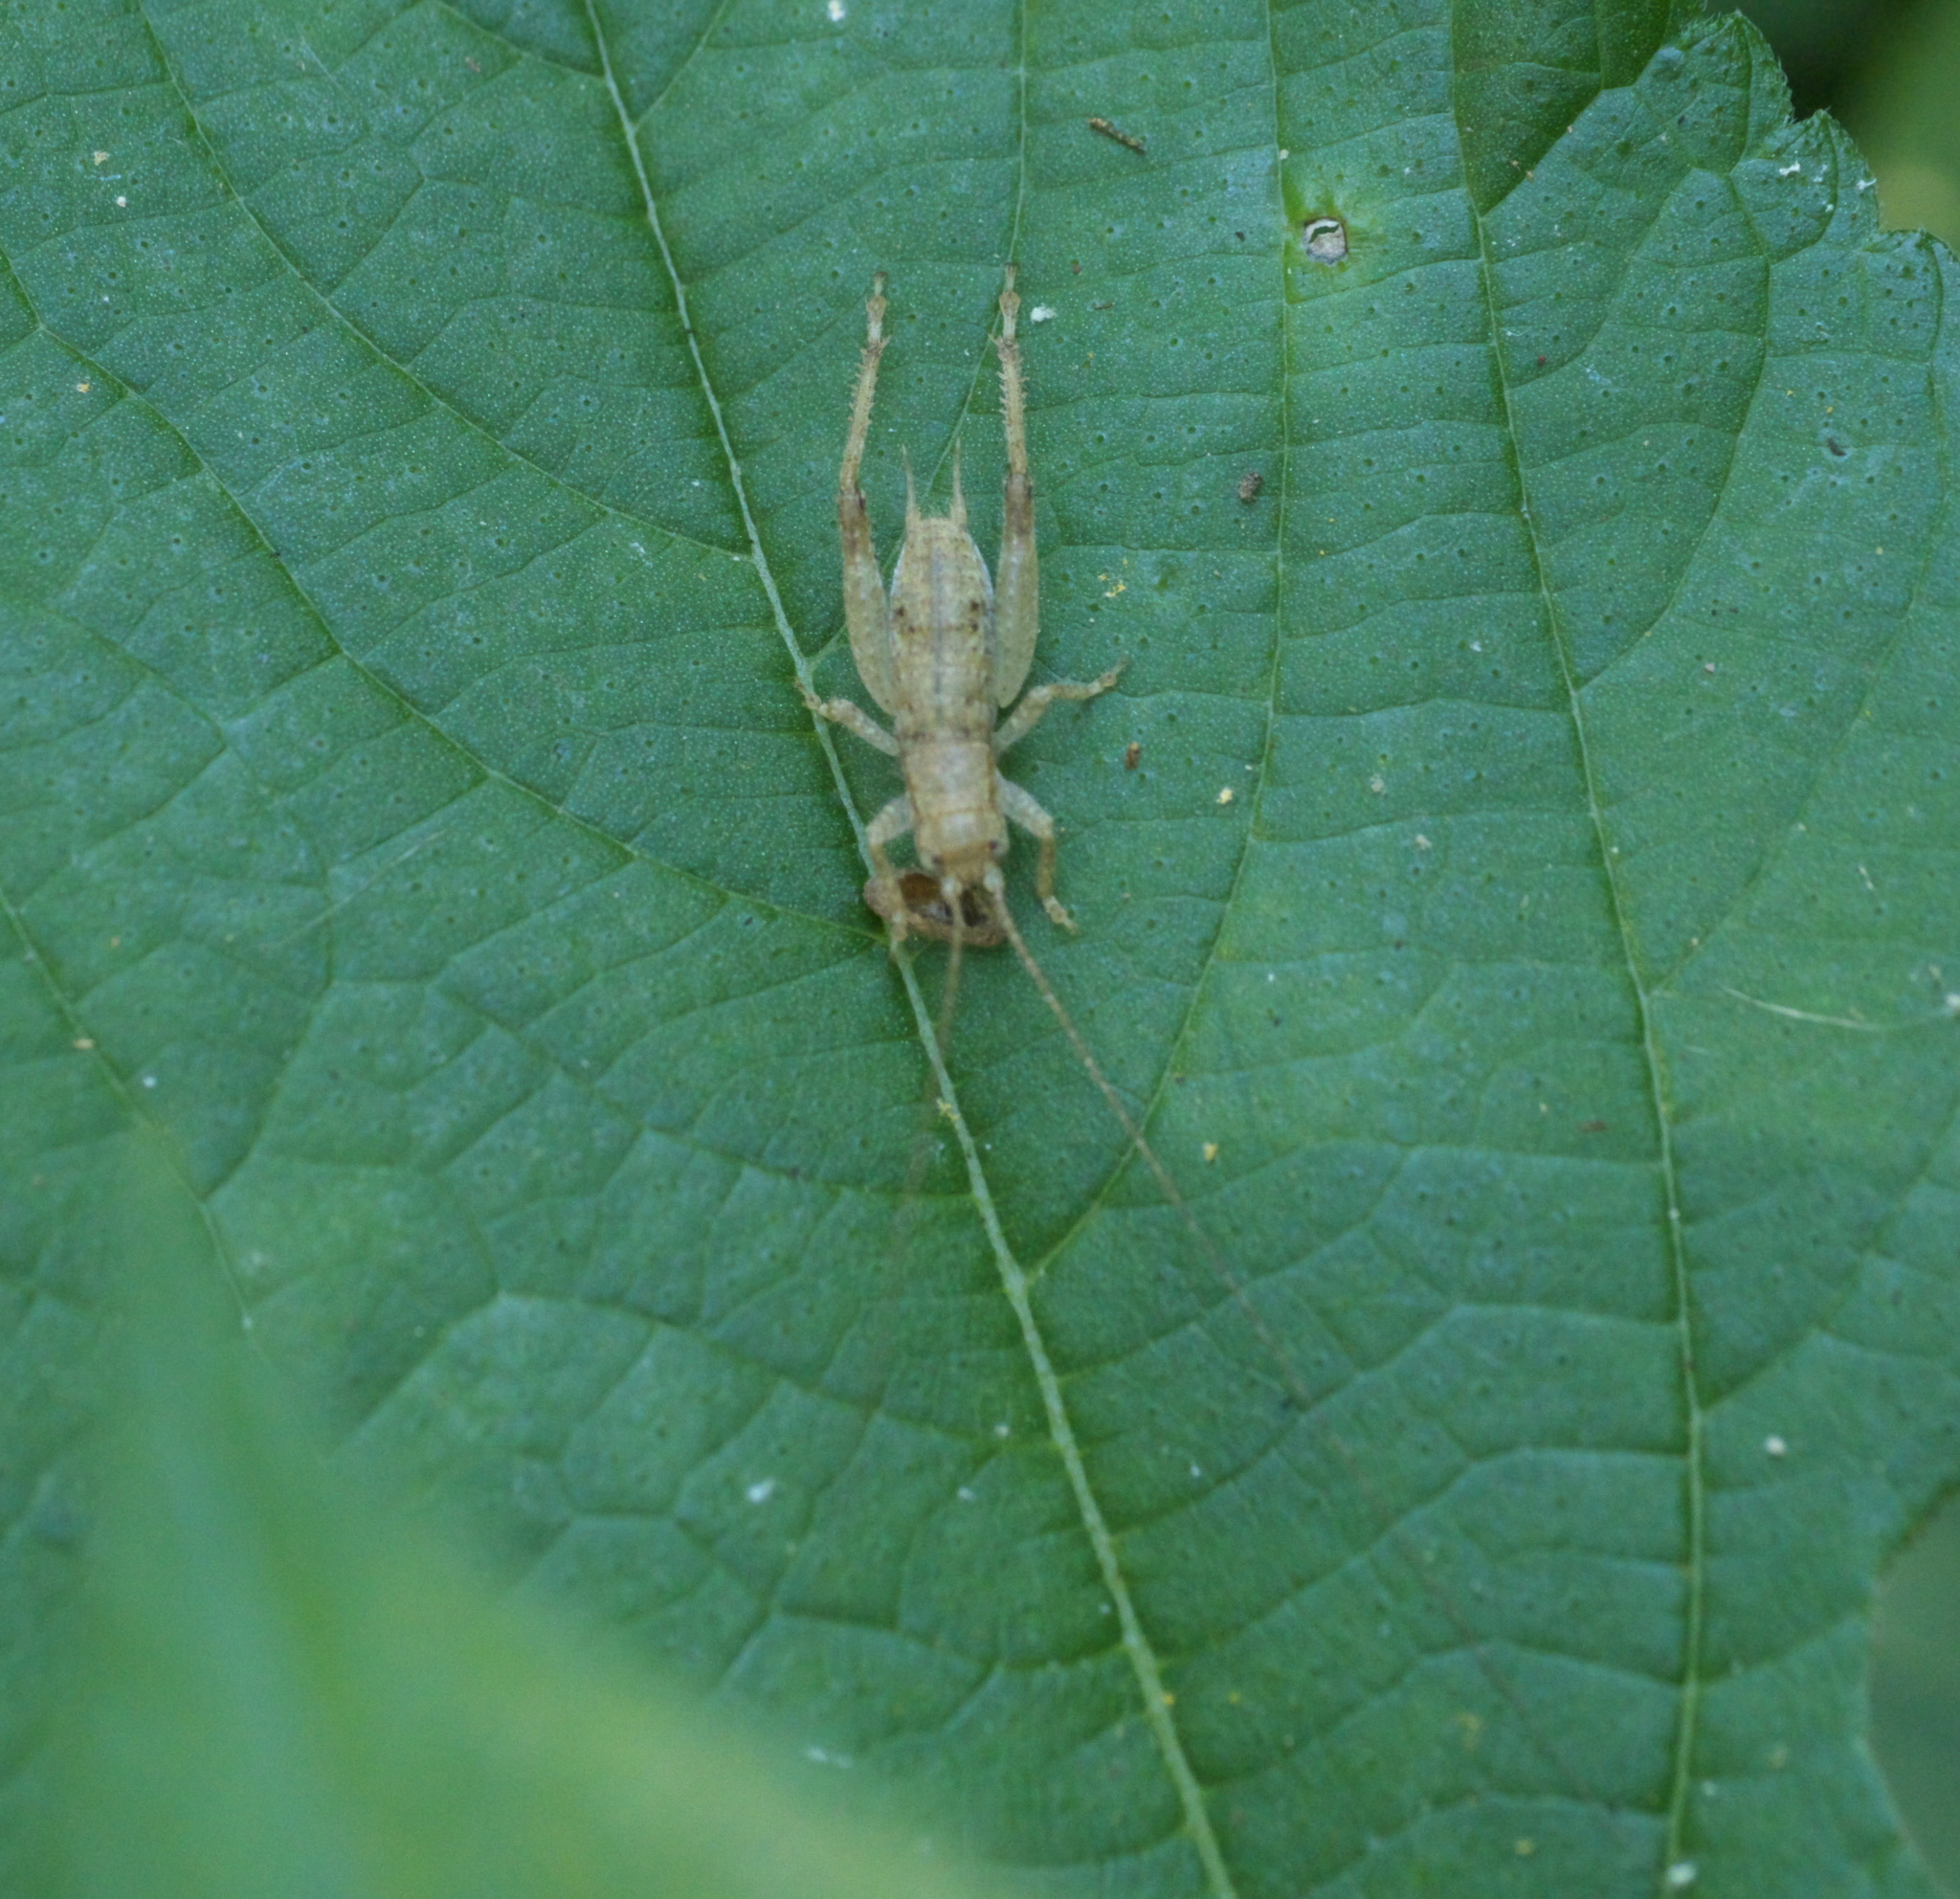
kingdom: Animalia
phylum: Arthropoda
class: Insecta
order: Orthoptera
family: Gryllidae
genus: Hapithus
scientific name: Hapithus saltator
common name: Jumping bush cricket
